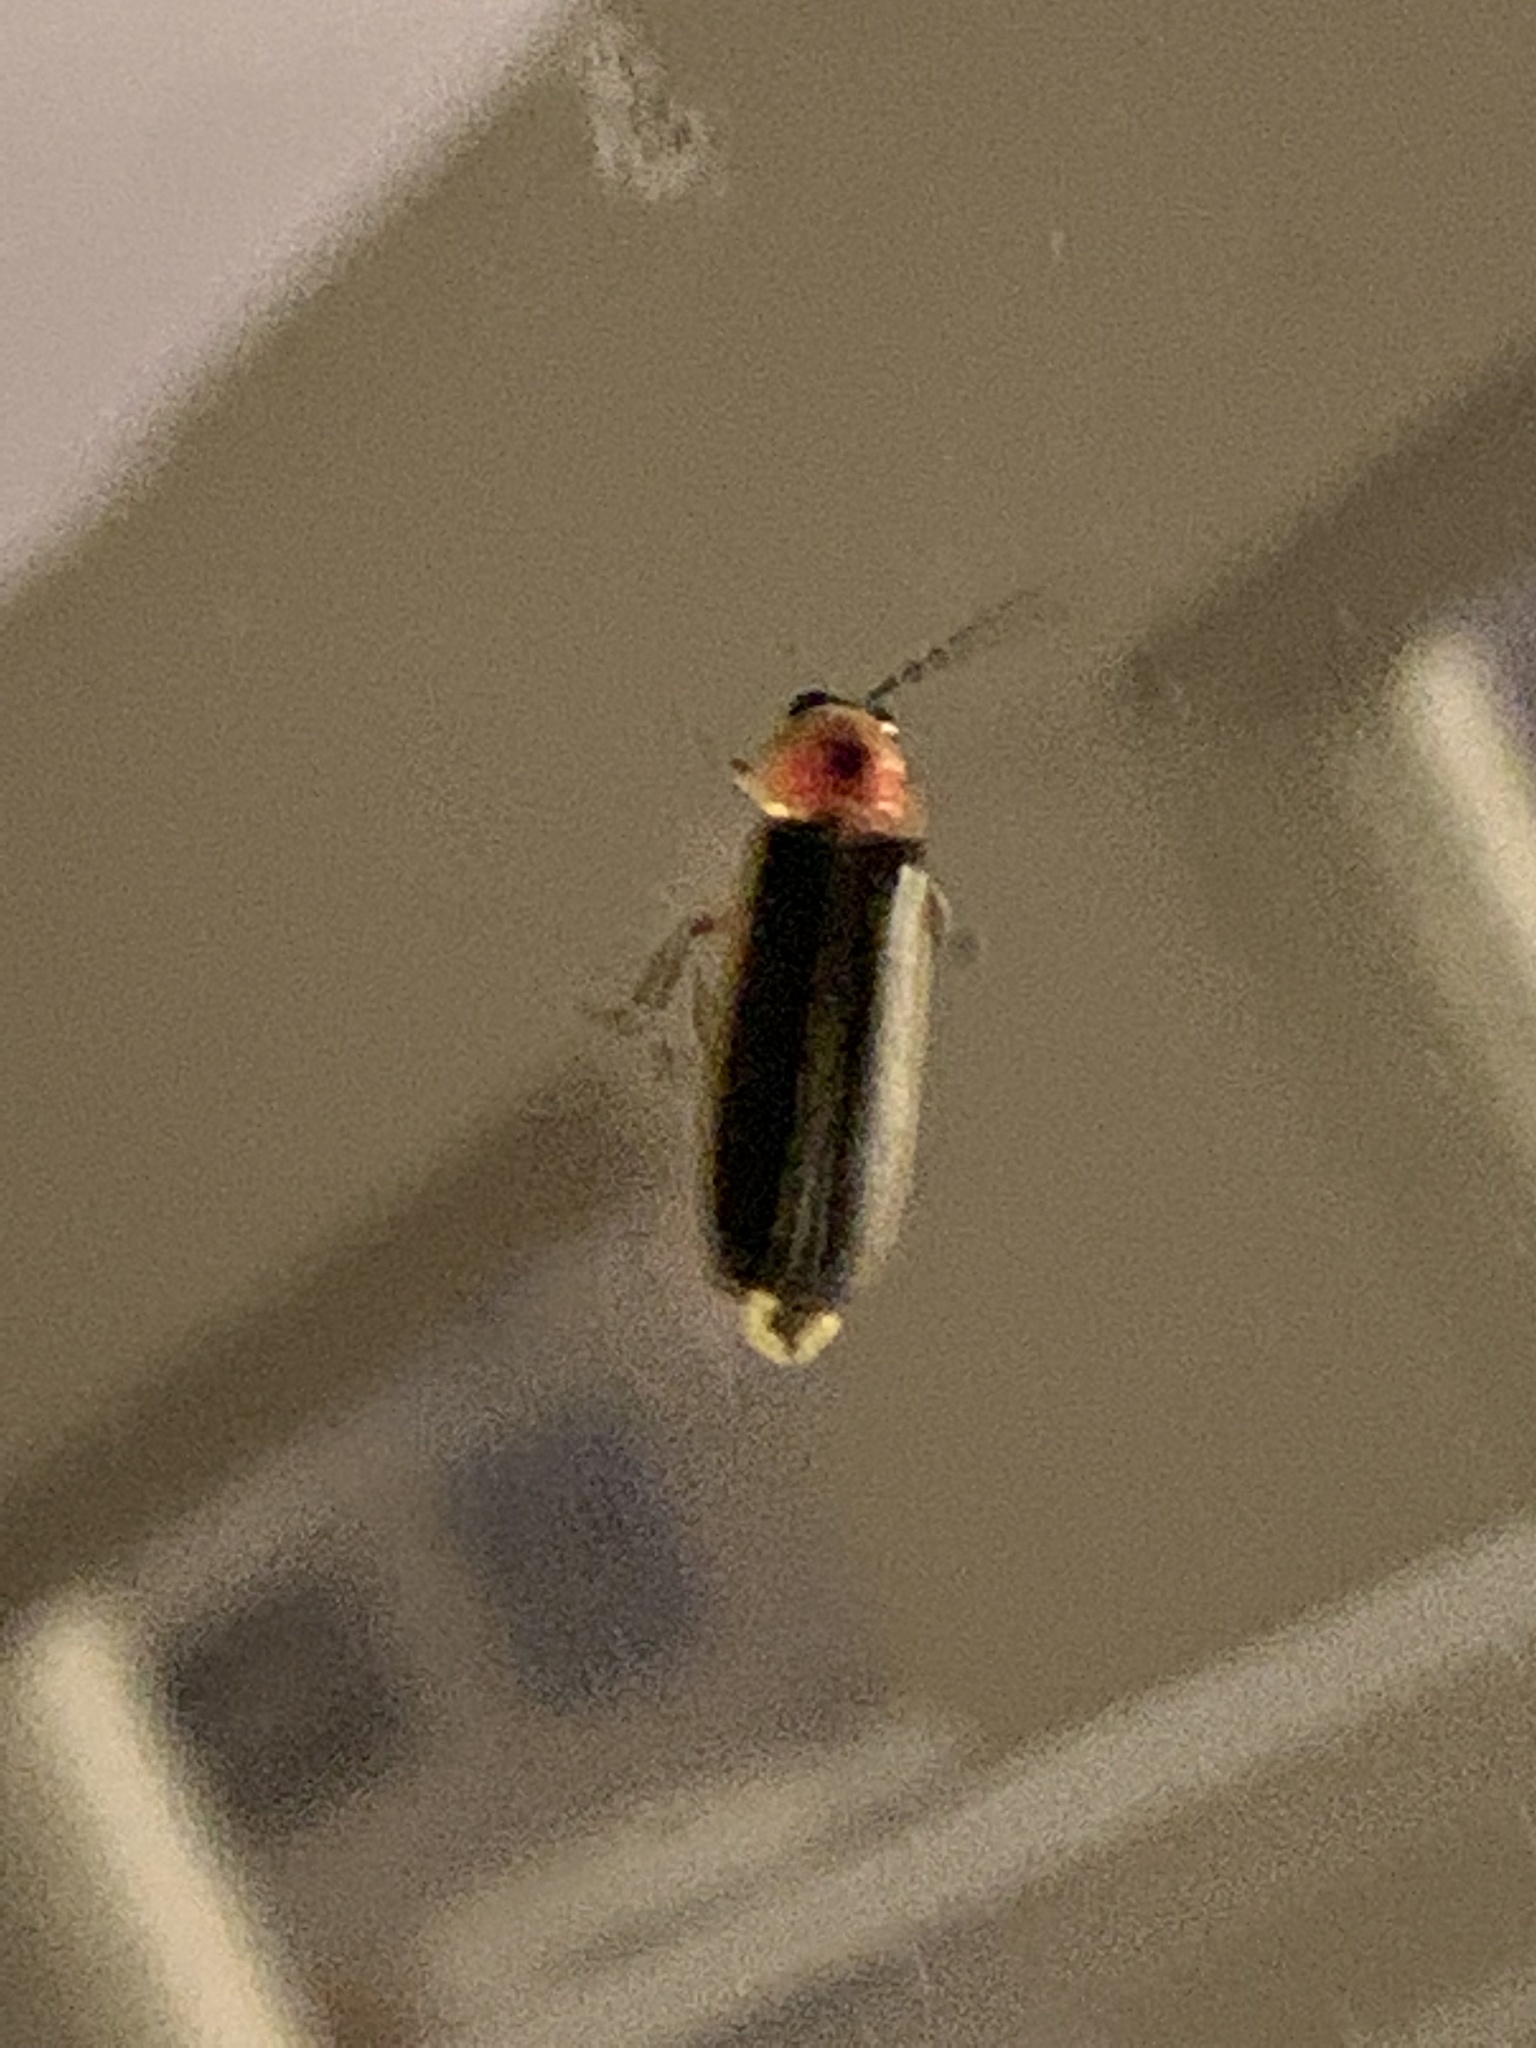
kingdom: Animalia
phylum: Arthropoda
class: Insecta
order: Coleoptera
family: Lampyridae
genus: Photinus
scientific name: Photinus pyralis
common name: Big dipper firefly
